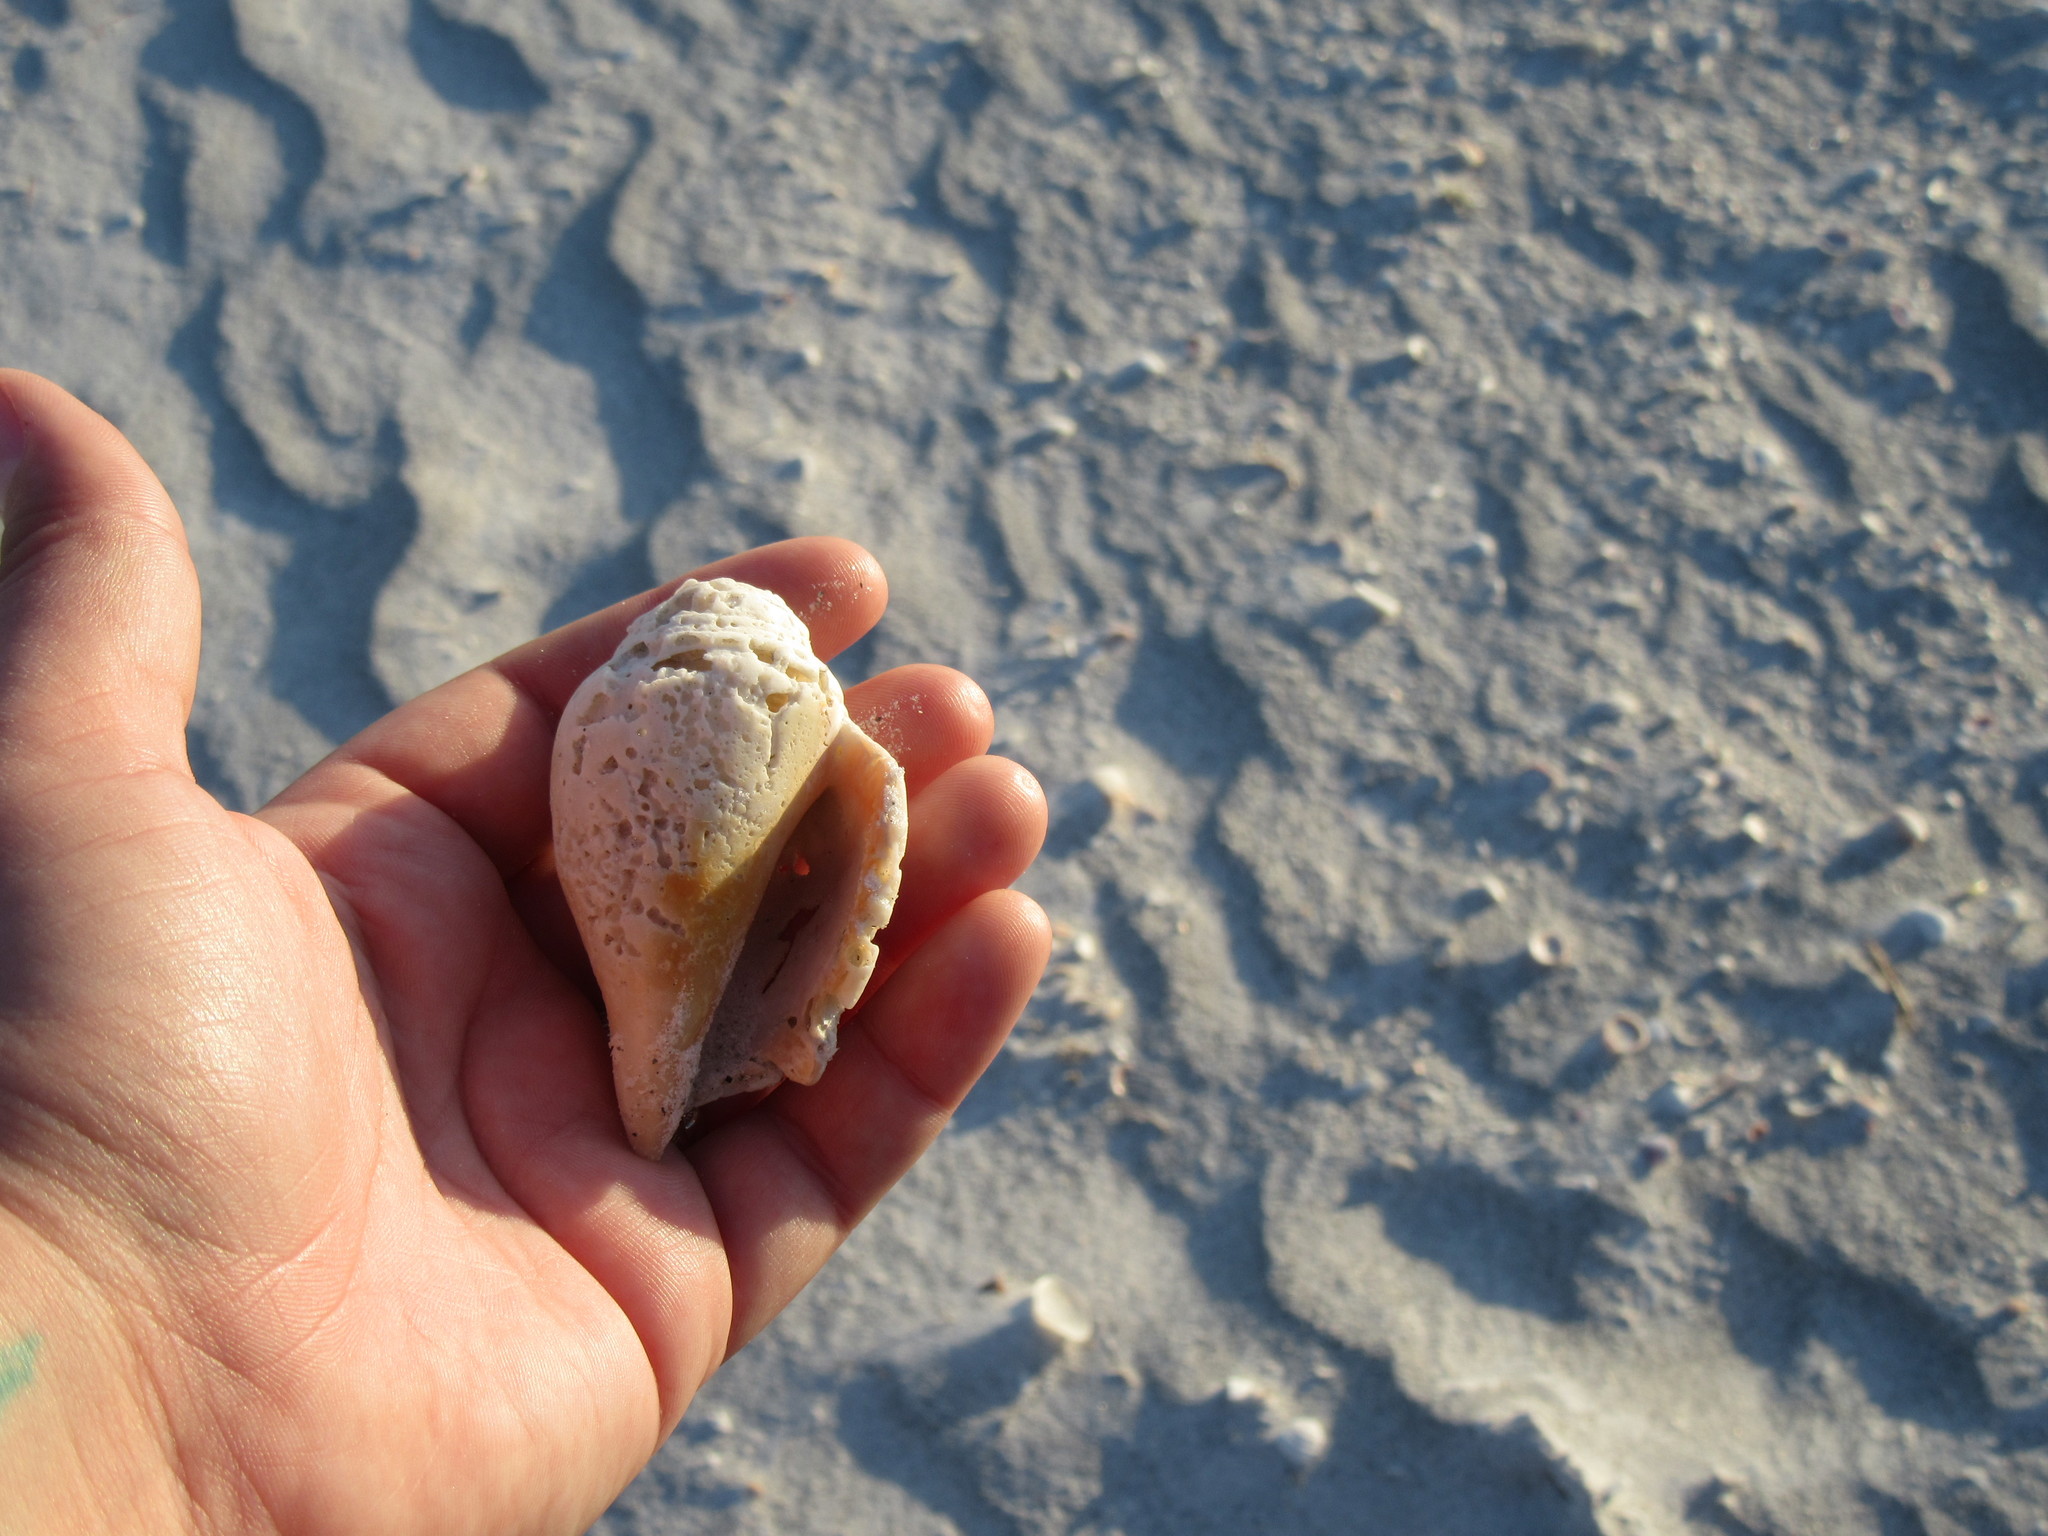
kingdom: Animalia
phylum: Mollusca
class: Gastropoda
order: Littorinimorpha
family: Strombidae
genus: Strombus
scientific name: Strombus alatus
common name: Florida fighting conch
